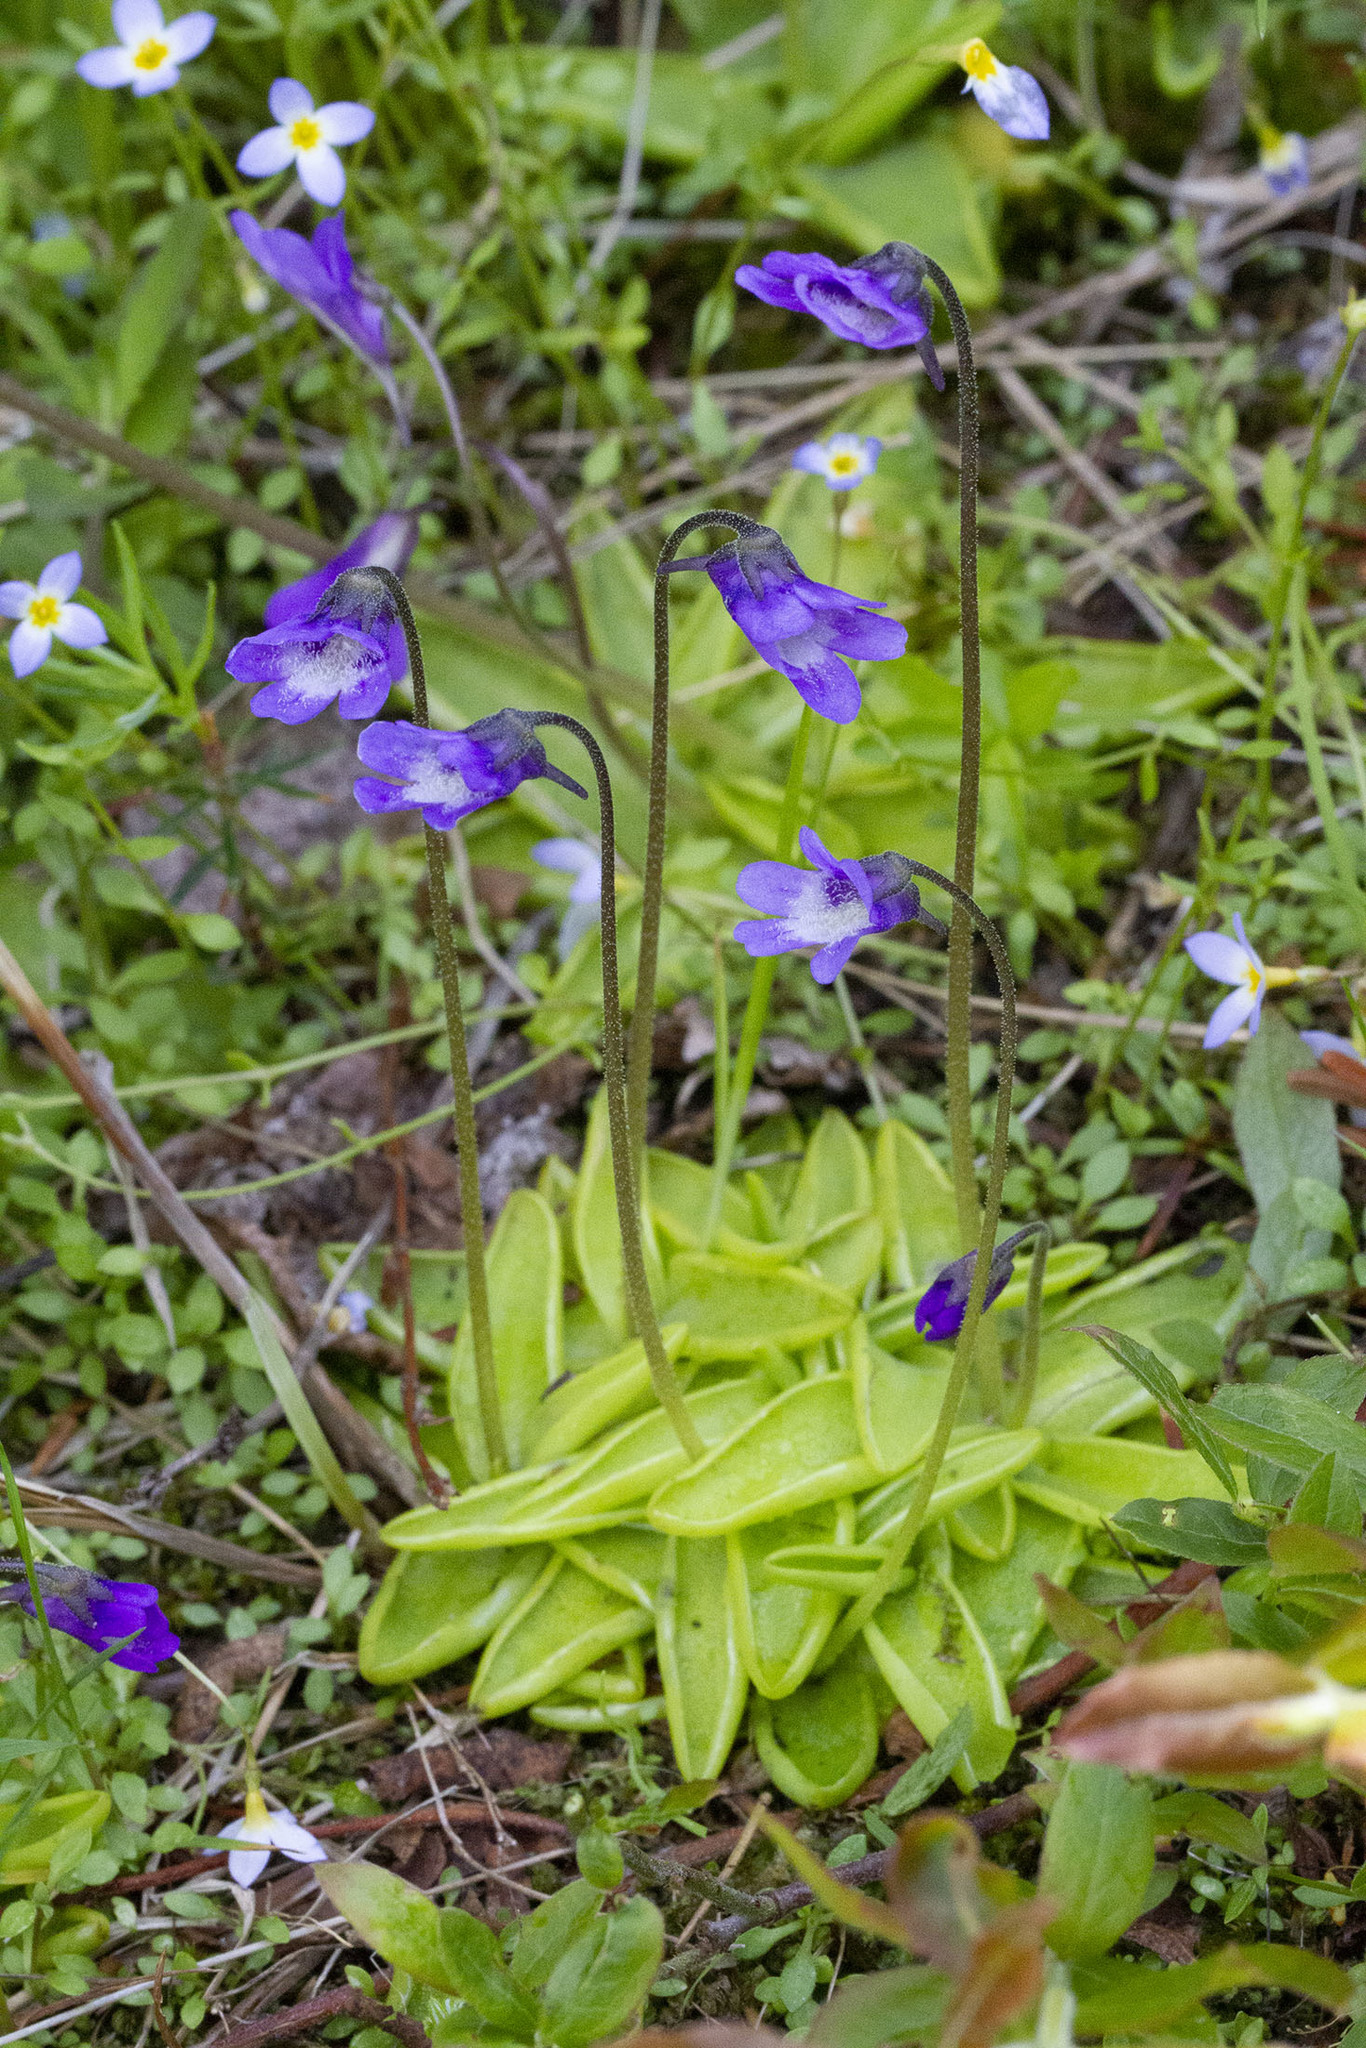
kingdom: Plantae
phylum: Tracheophyta
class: Magnoliopsida
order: Lamiales
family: Lentibulariaceae
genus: Pinguicula
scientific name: Pinguicula vulgaris
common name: Common butterwort
